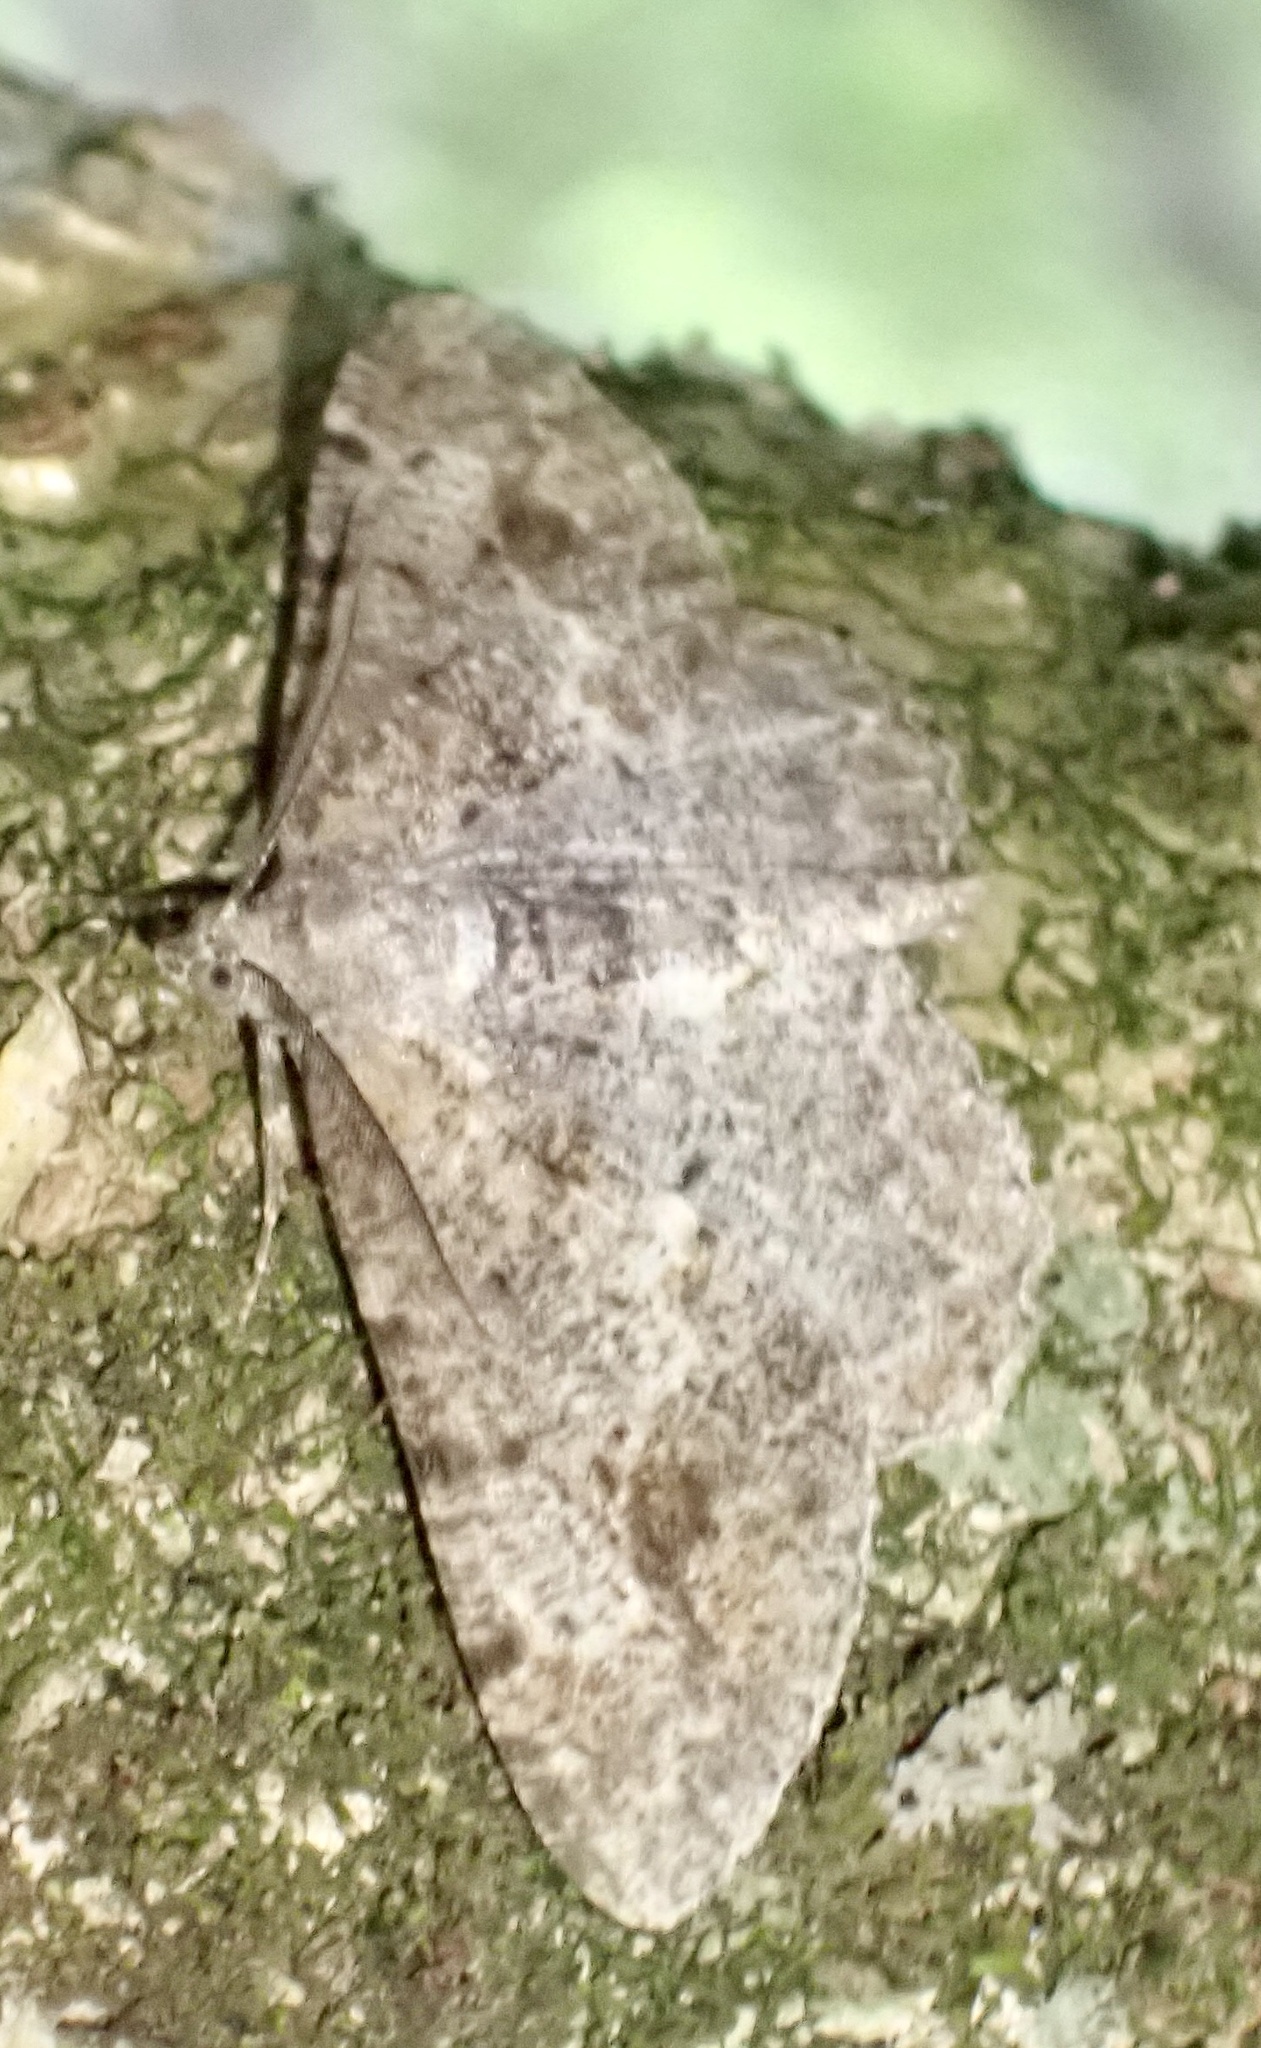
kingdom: Animalia
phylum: Arthropoda
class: Insecta
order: Lepidoptera
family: Geometridae
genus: Alcis
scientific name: Alcis repandata
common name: Mottled beauty
